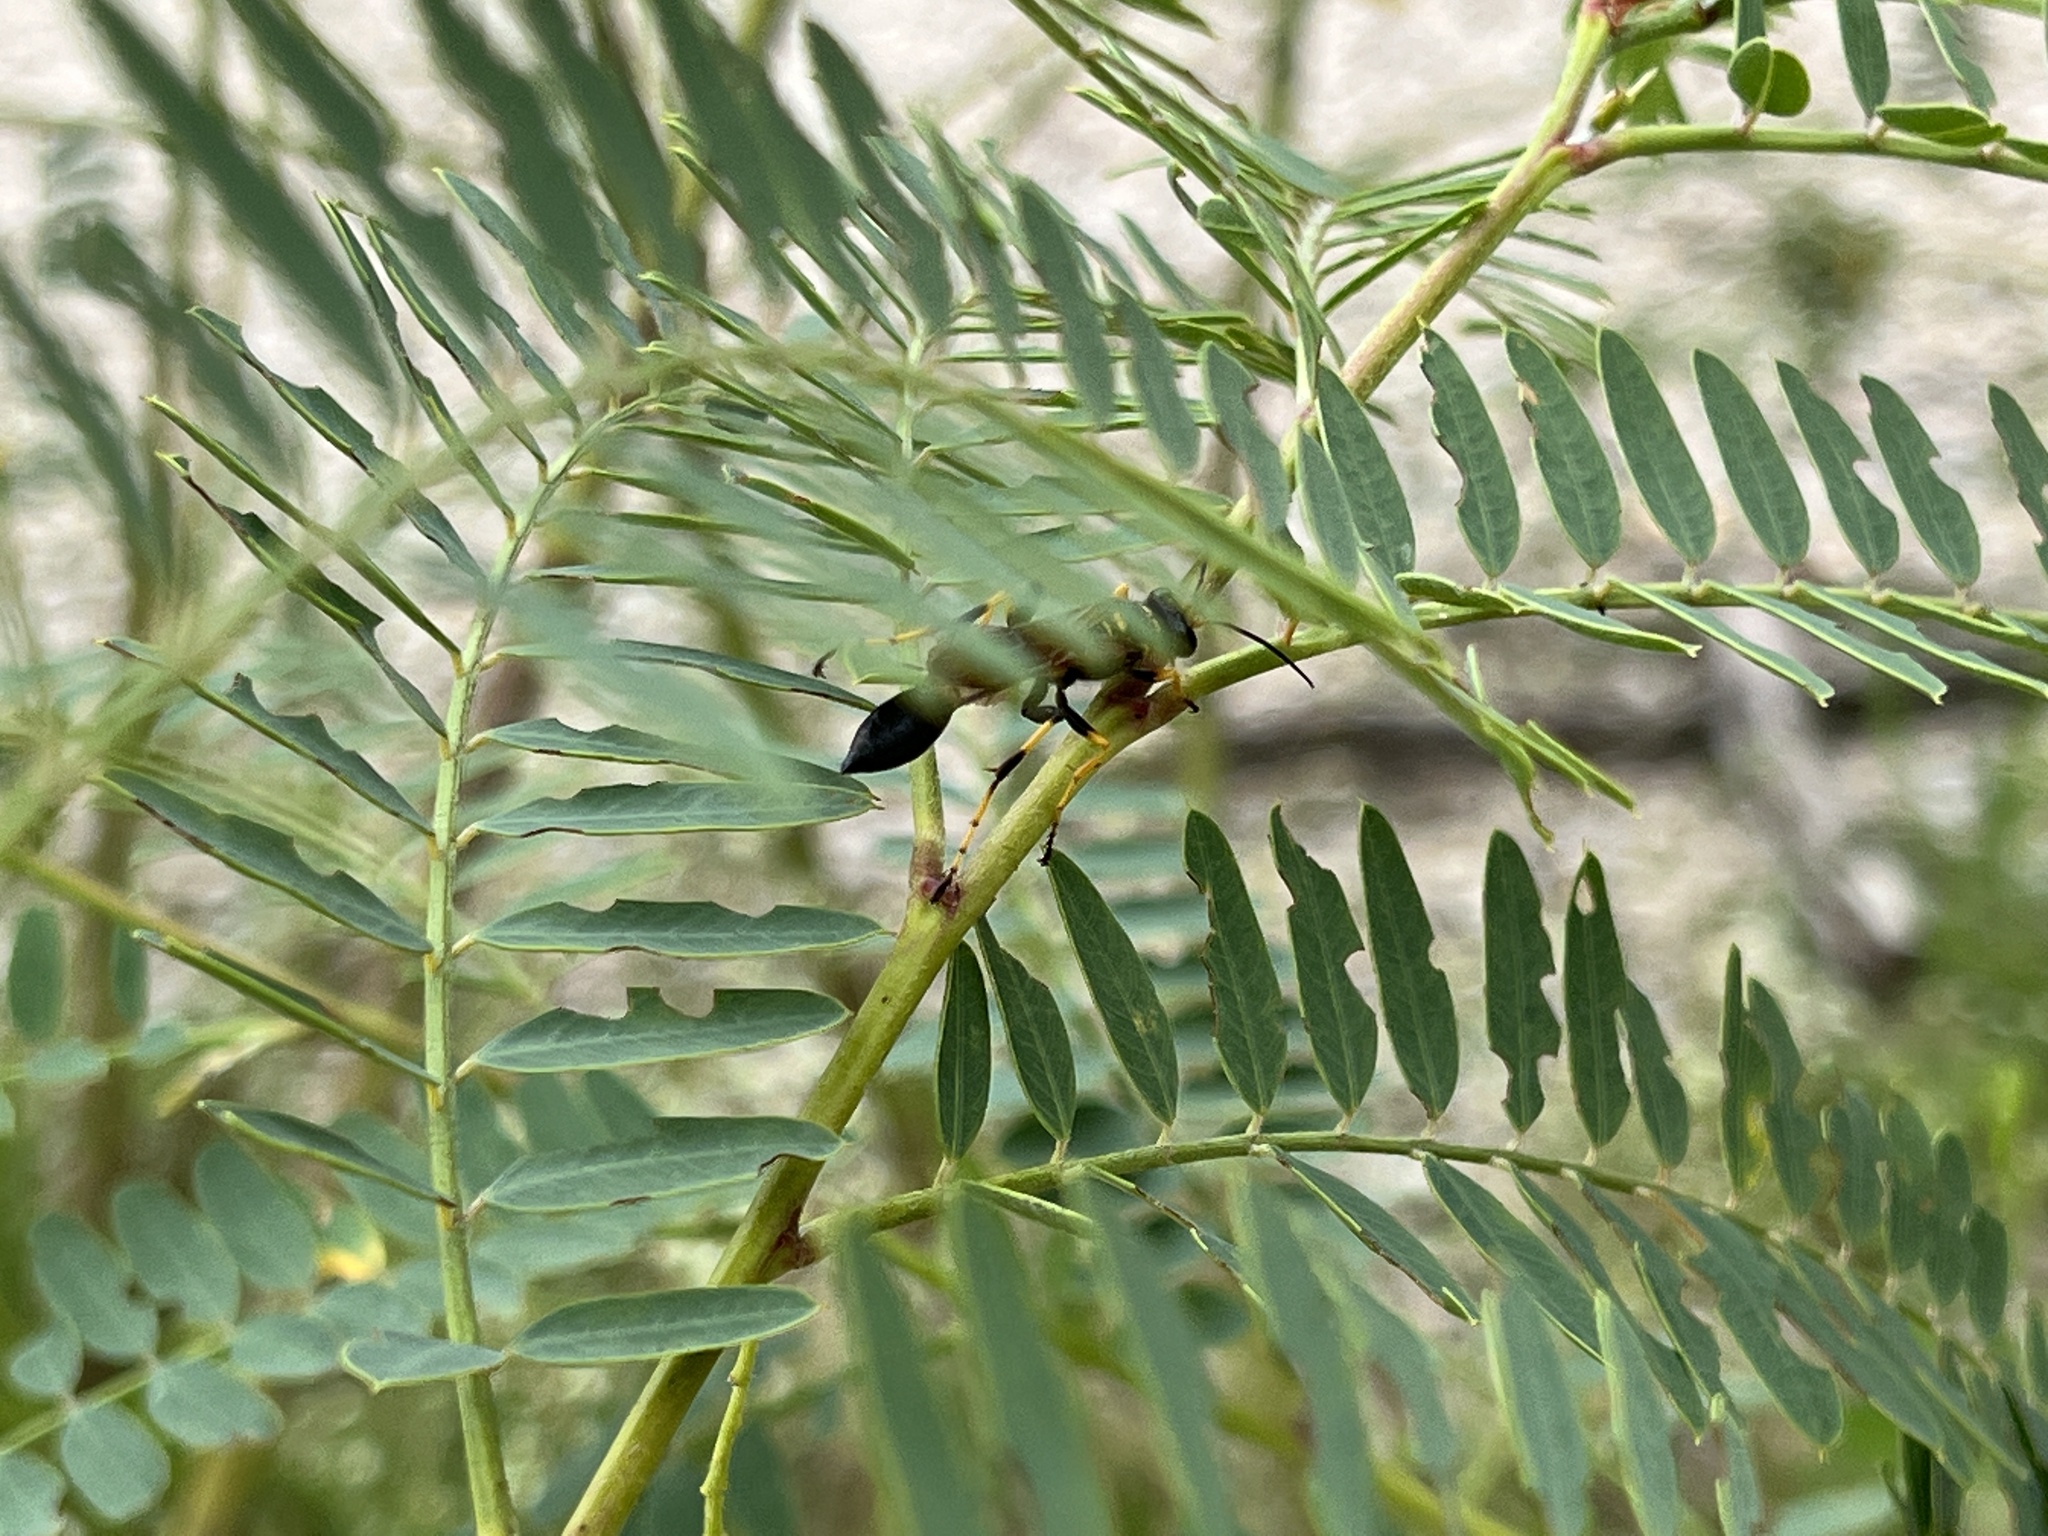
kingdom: Animalia
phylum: Arthropoda
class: Insecta
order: Hymenoptera
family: Sphecidae
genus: Sceliphron
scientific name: Sceliphron caementarium
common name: Mud dauber
